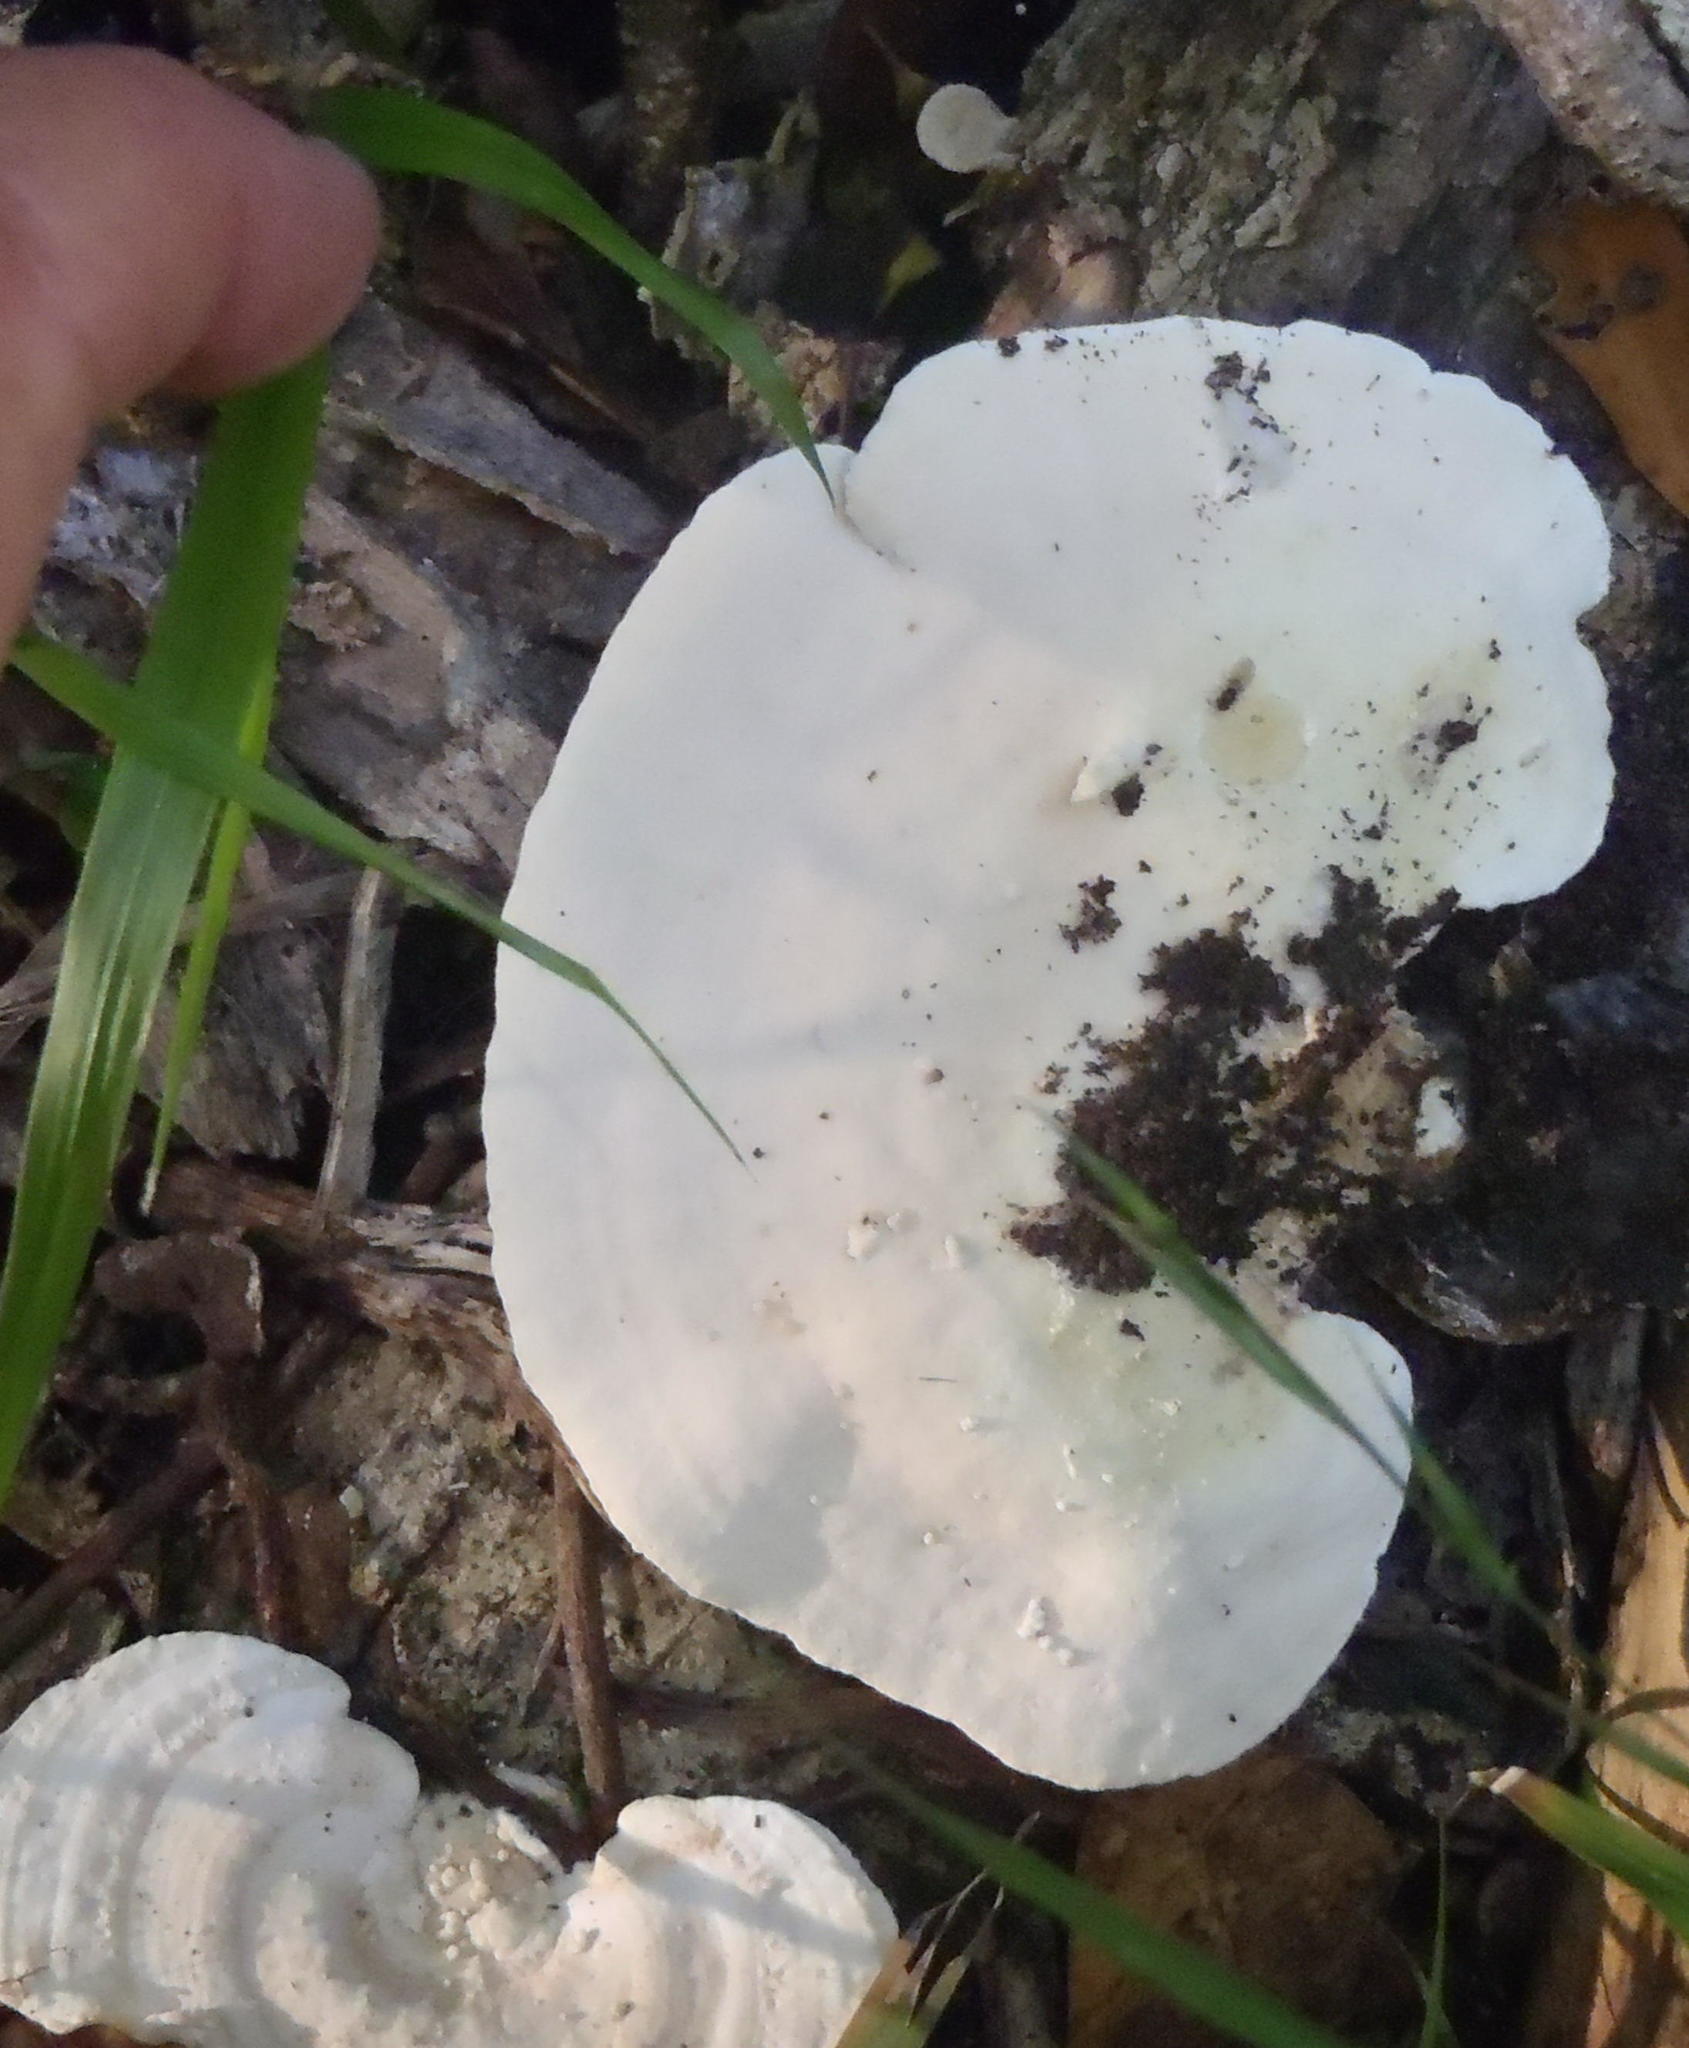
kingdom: Fungi
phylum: Basidiomycota
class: Agaricomycetes
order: Polyporales
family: Polyporaceae
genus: Trametes
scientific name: Trametes elegans
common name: White maze polypore
